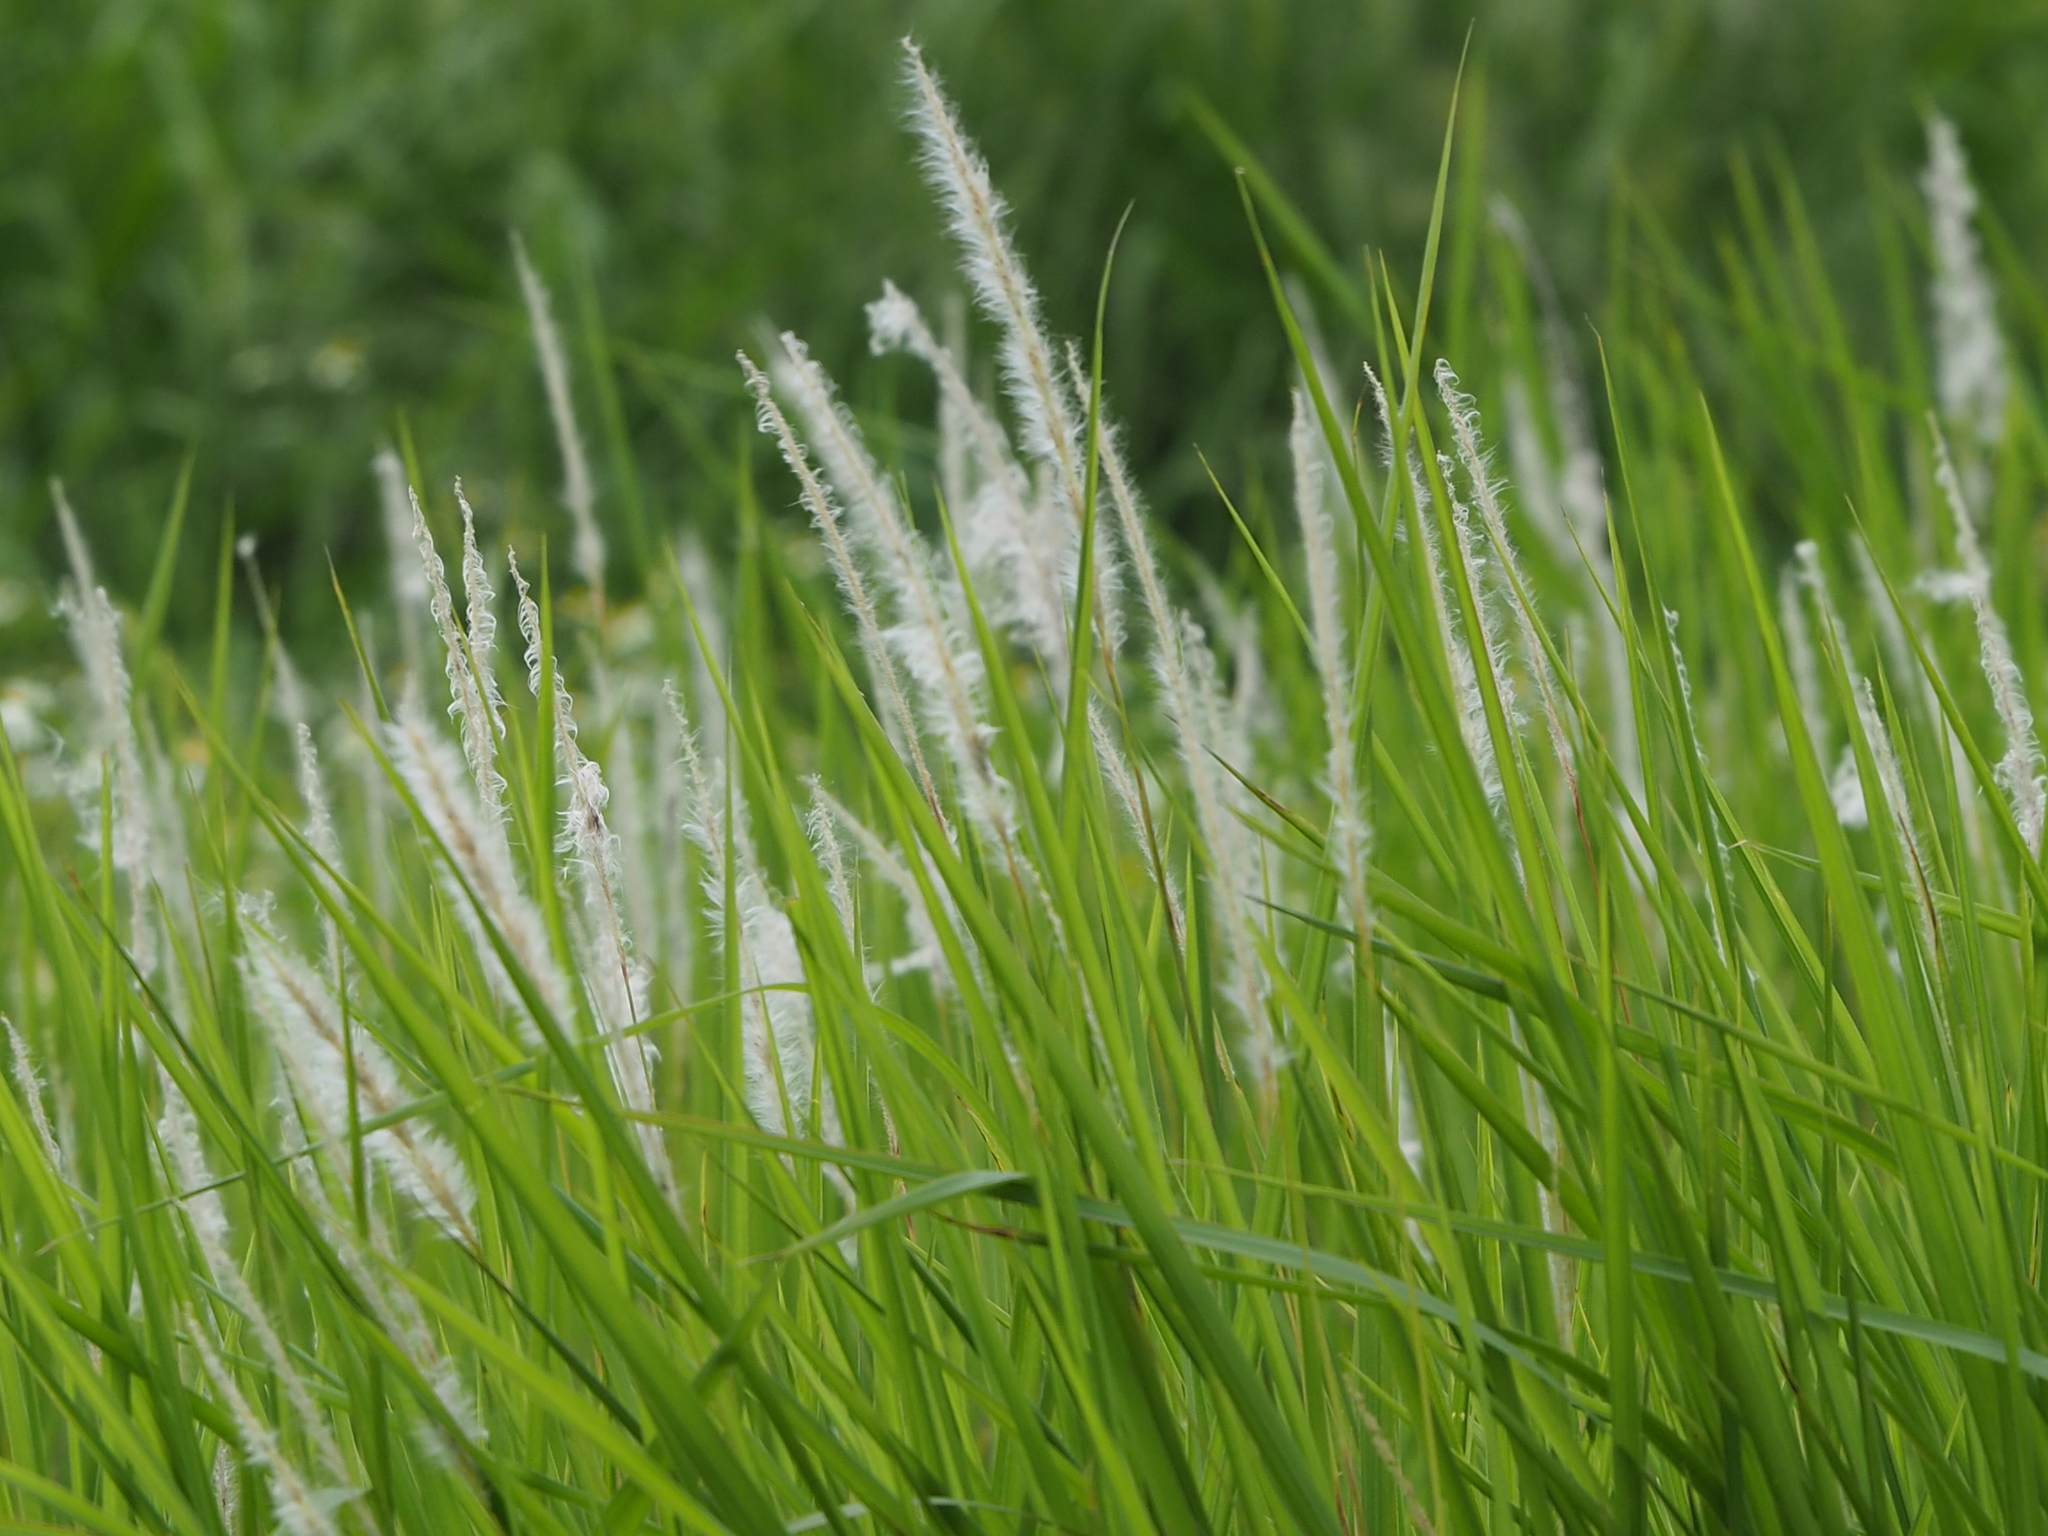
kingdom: Plantae
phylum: Tracheophyta
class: Liliopsida
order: Poales
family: Poaceae
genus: Imperata
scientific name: Imperata cylindrica
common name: Cogongrass
